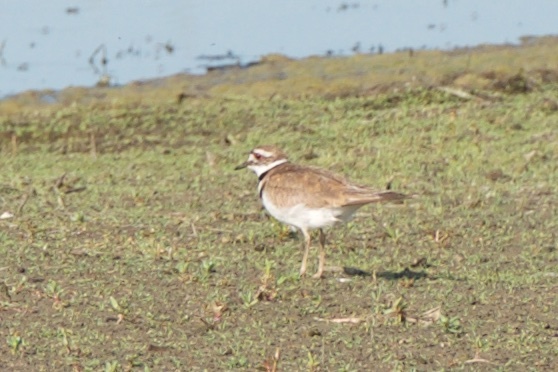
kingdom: Animalia
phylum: Chordata
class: Aves
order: Charadriiformes
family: Charadriidae
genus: Charadrius
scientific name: Charadrius vociferus
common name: Killdeer
